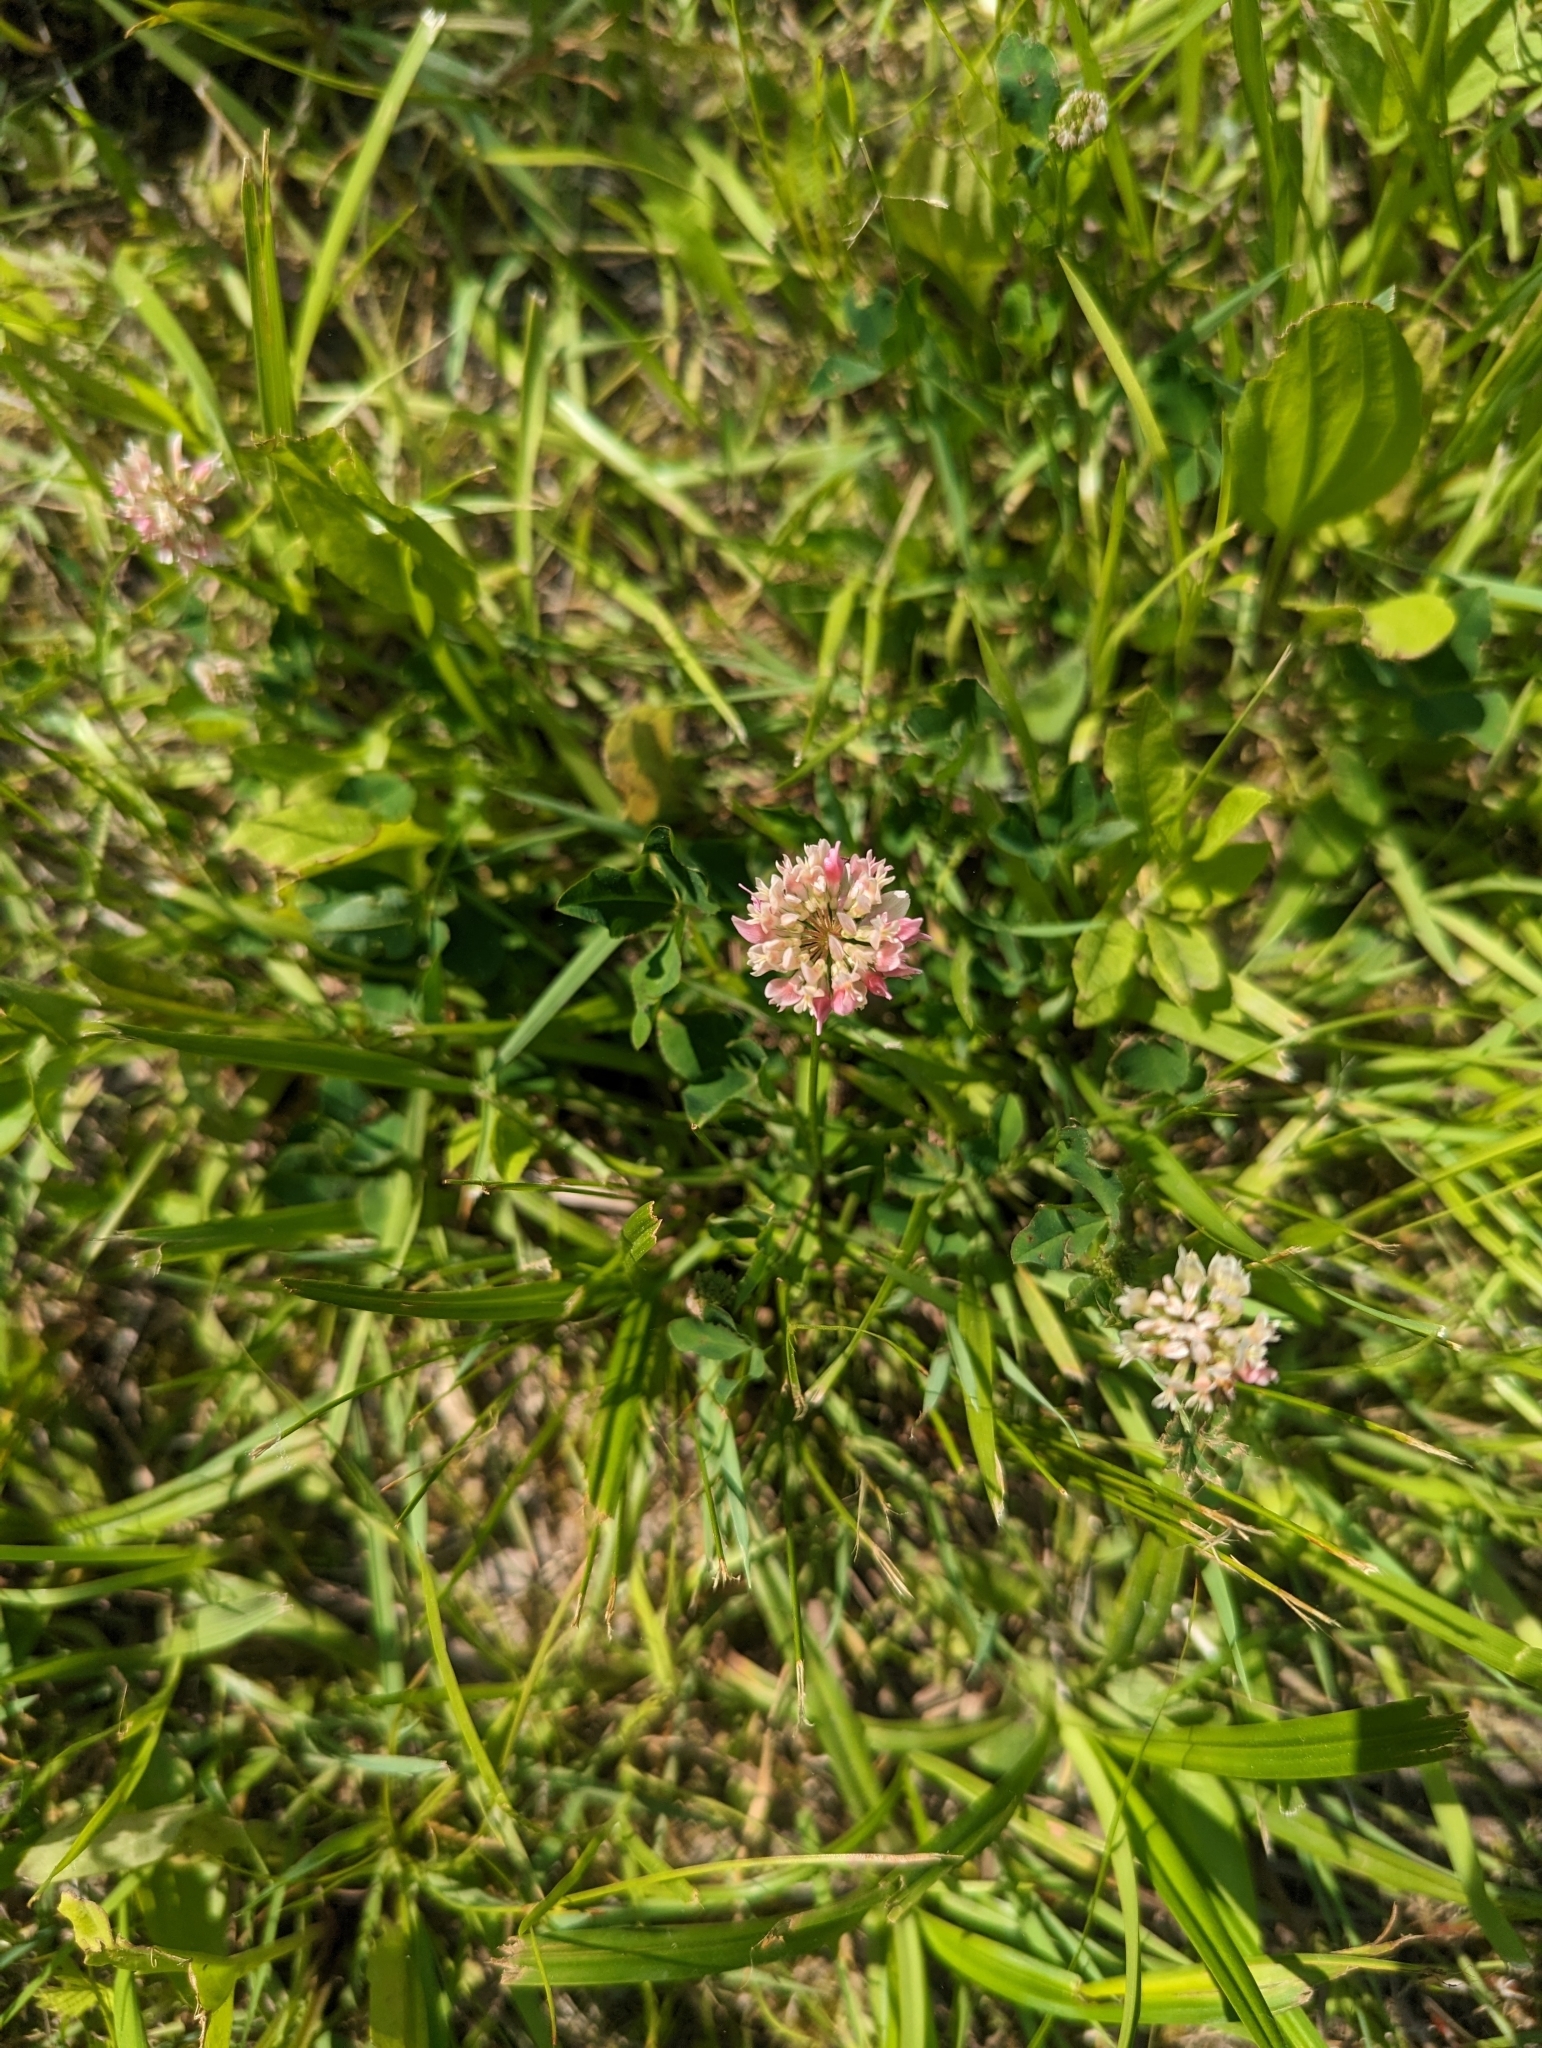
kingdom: Plantae
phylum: Tracheophyta
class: Magnoliopsida
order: Fabales
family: Fabaceae
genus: Trifolium
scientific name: Trifolium hybridum
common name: Alsike clover
